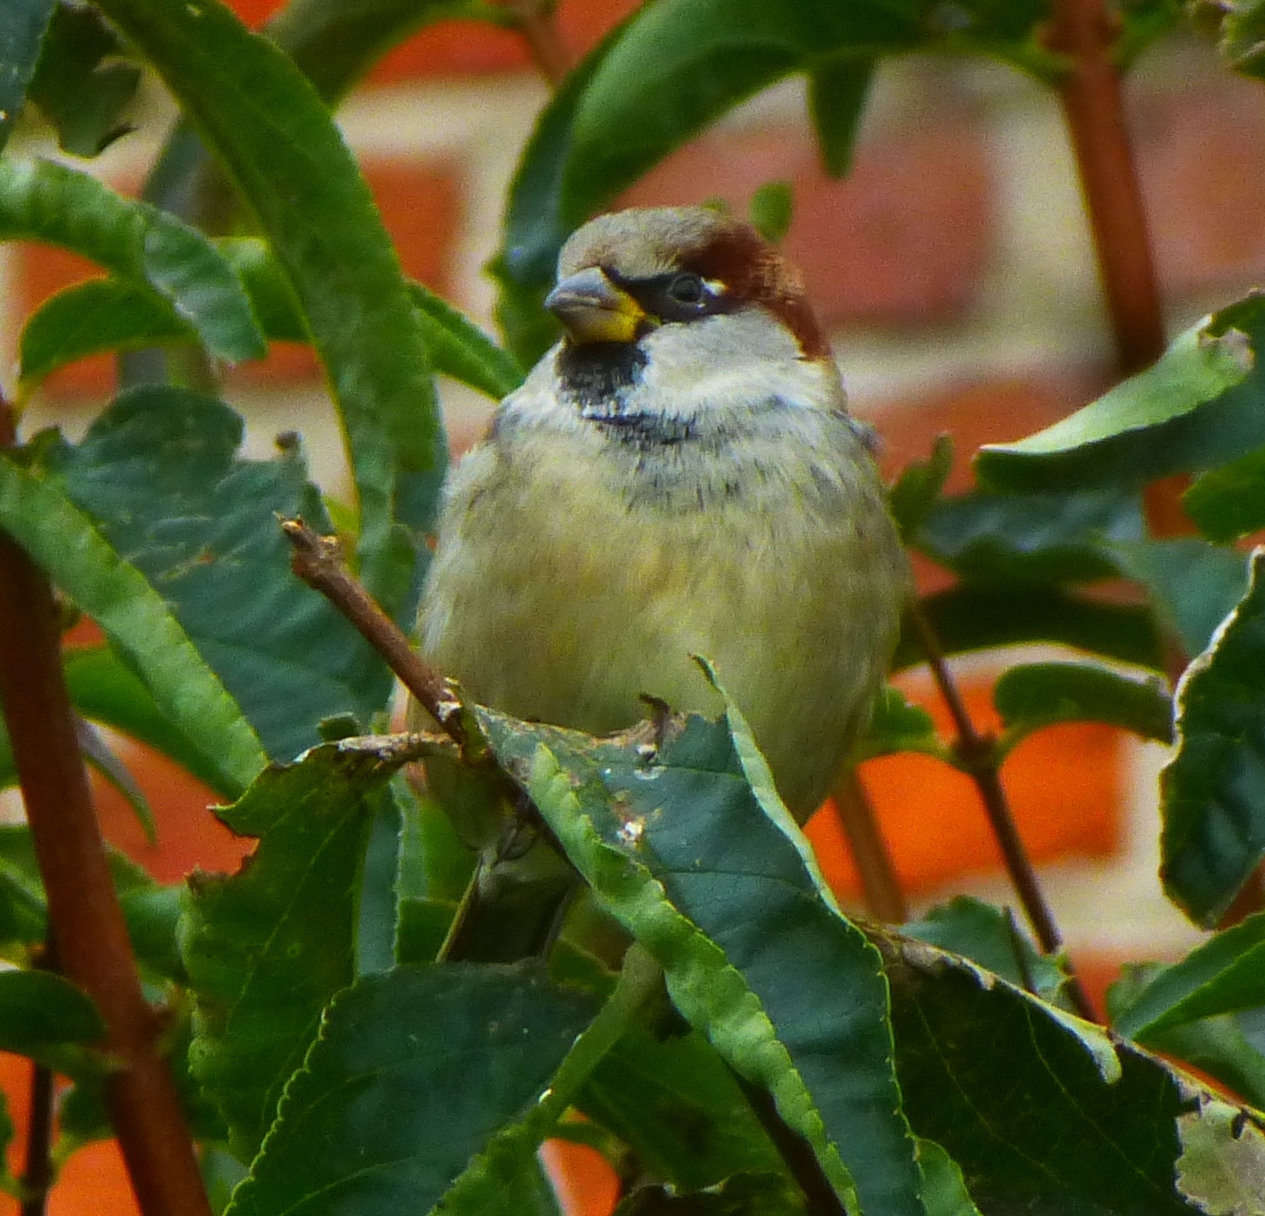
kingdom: Animalia
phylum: Chordata
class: Aves
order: Passeriformes
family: Passeridae
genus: Passer
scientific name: Passer domesticus
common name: House sparrow
